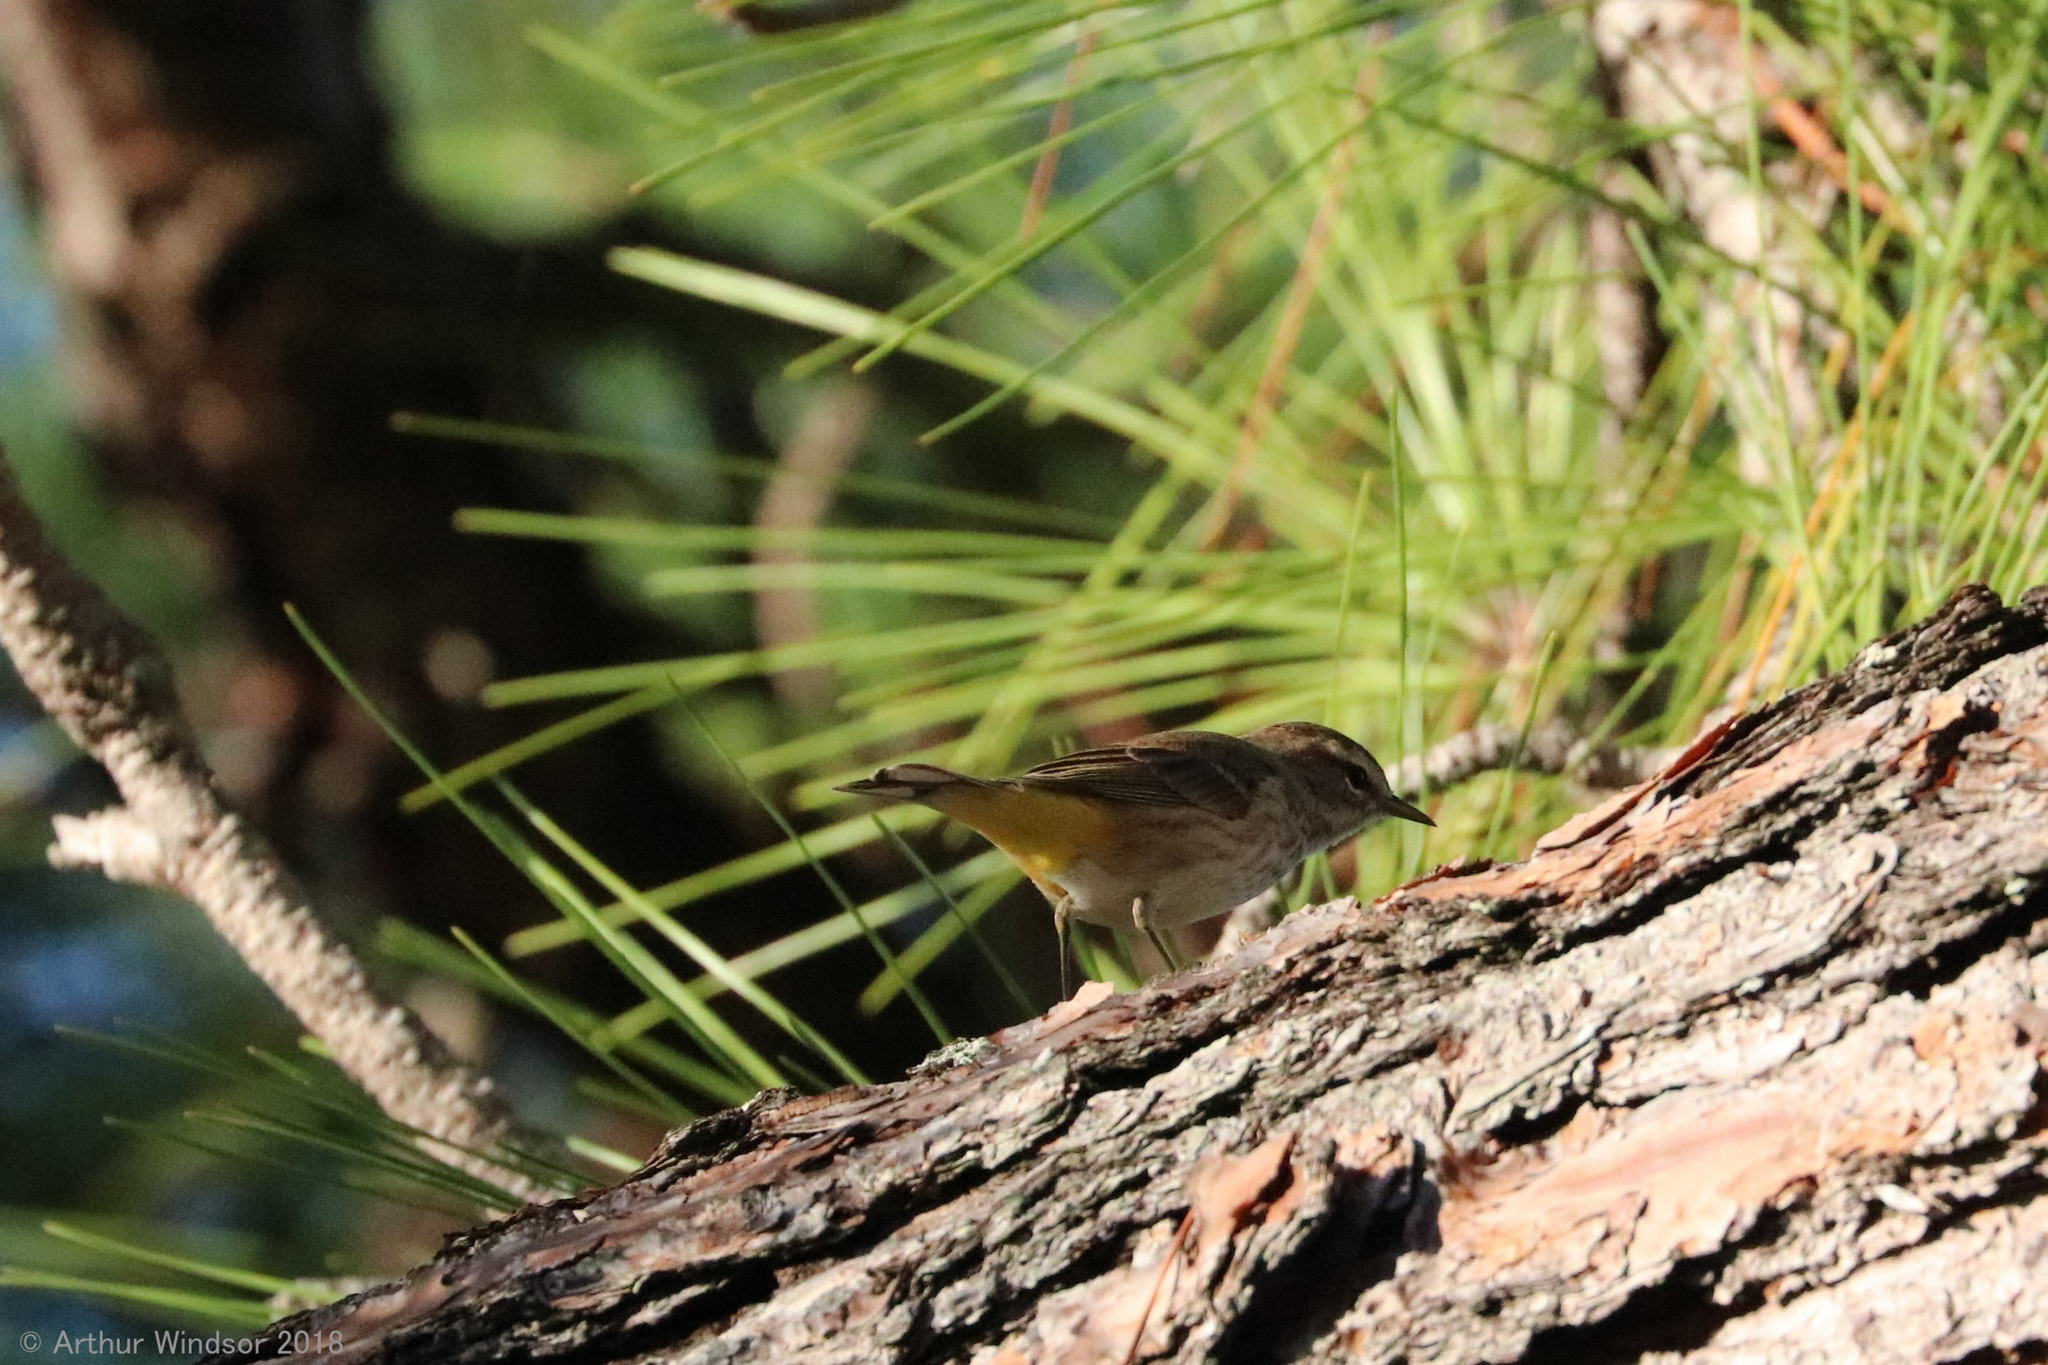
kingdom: Animalia
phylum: Chordata
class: Aves
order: Passeriformes
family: Parulidae
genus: Setophaga
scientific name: Setophaga palmarum
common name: Palm warbler
